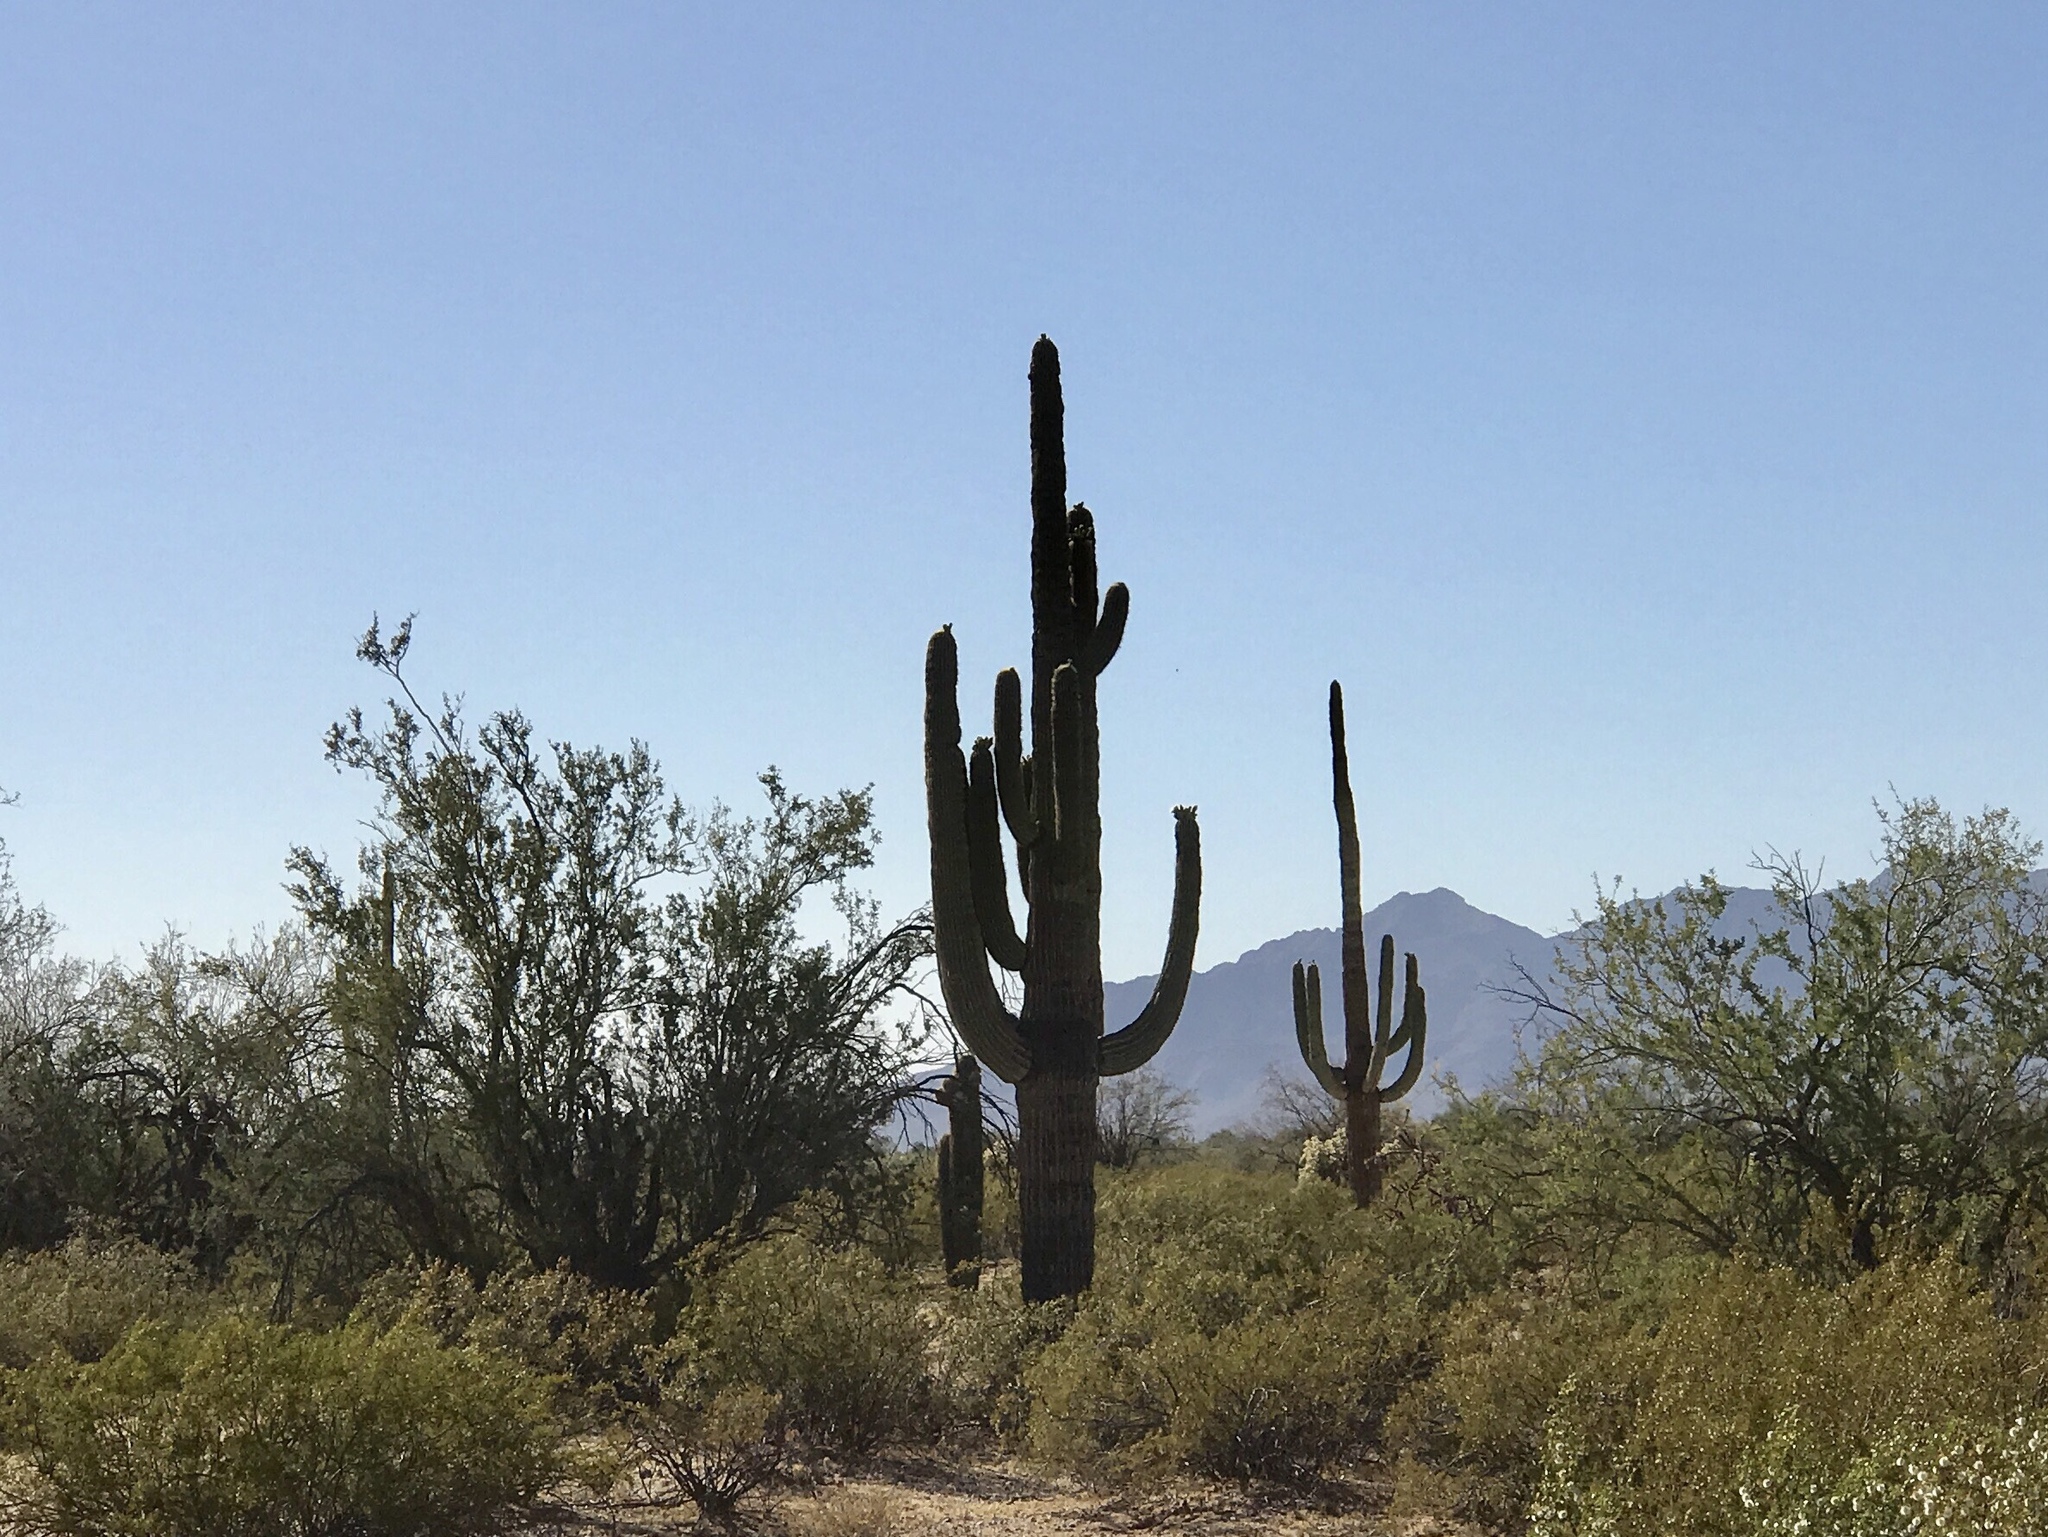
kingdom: Plantae
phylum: Tracheophyta
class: Magnoliopsida
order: Caryophyllales
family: Cactaceae
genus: Carnegiea
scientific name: Carnegiea gigantea
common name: Saguaro
